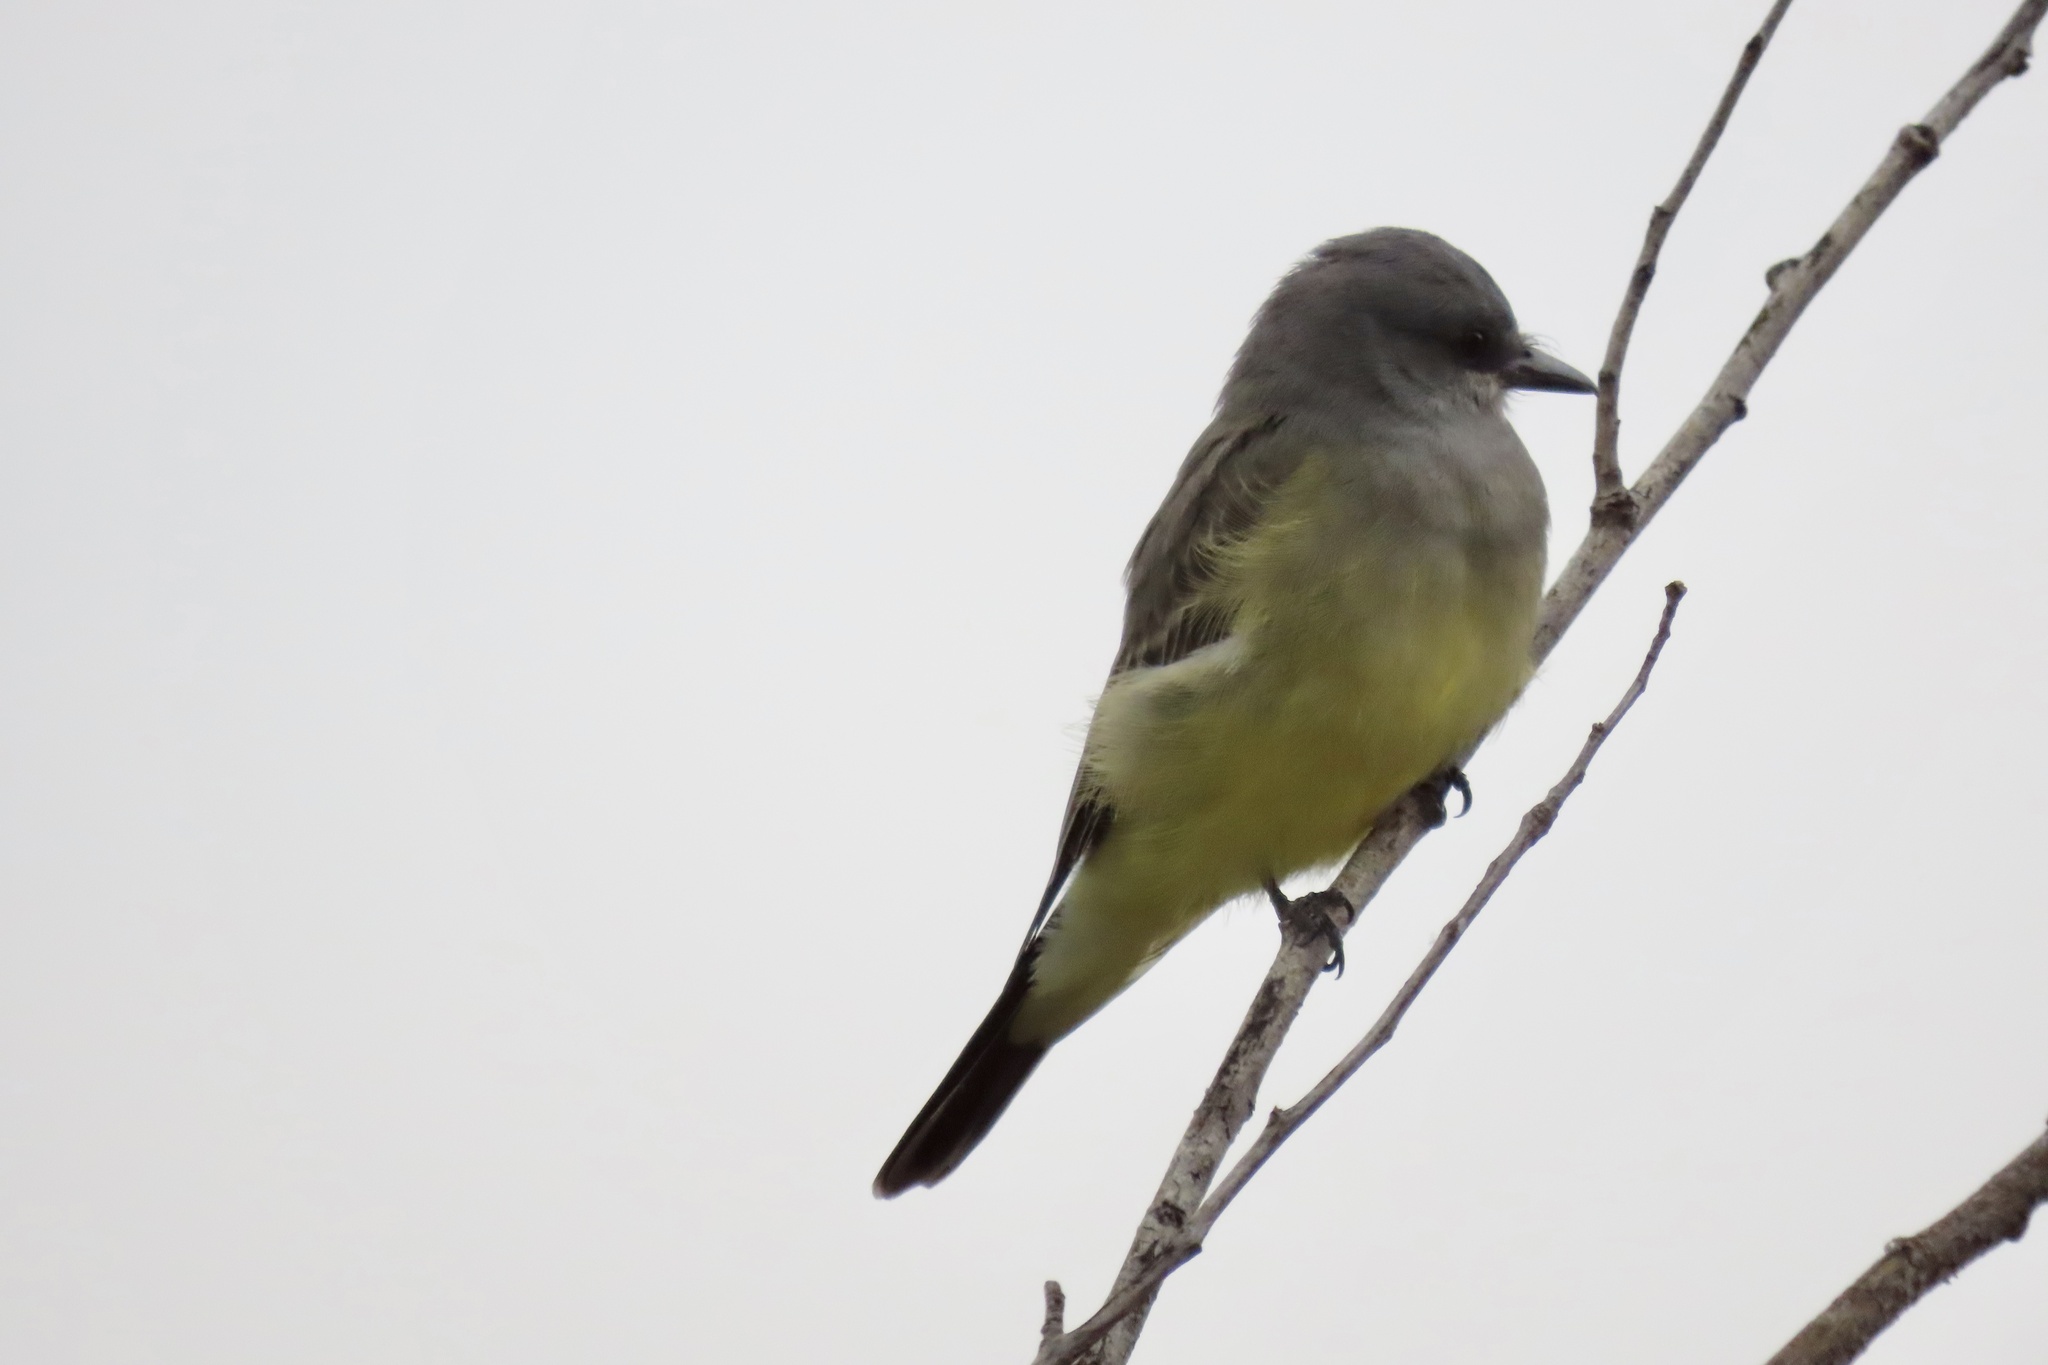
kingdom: Animalia
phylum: Chordata
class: Aves
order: Passeriformes
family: Tyrannidae
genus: Tyrannus
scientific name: Tyrannus vociferans
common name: Cassin's kingbird
